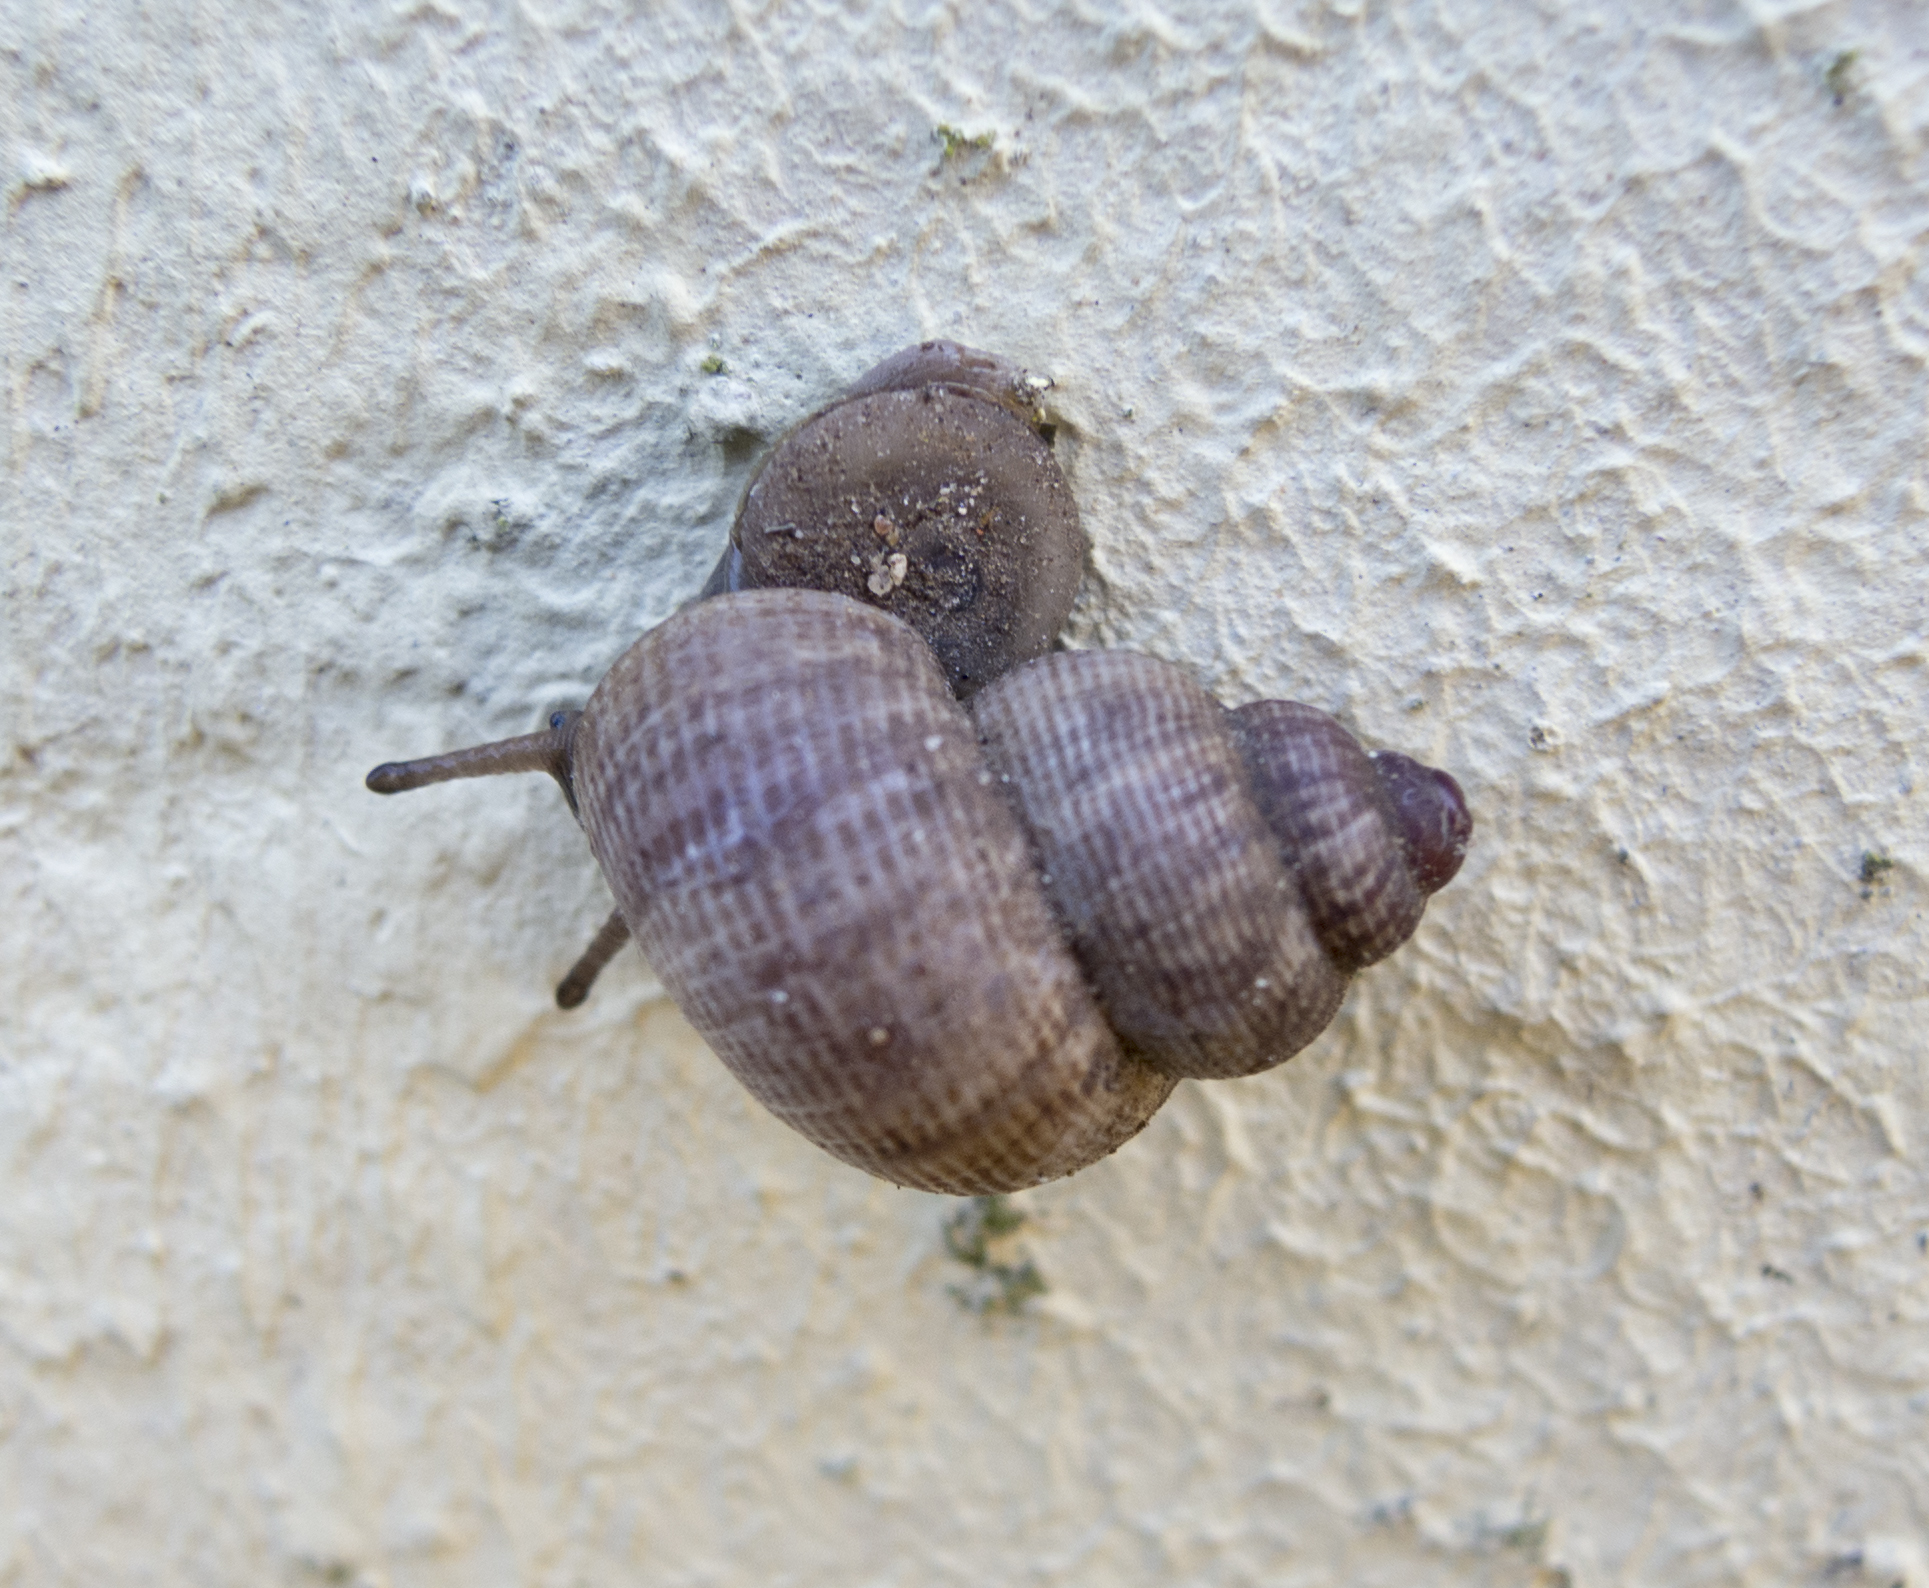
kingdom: Animalia
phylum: Mollusca
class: Gastropoda
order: Littorinimorpha
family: Pomatiidae
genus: Pomatias
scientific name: Pomatias elegans
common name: Red-mouthed snail
